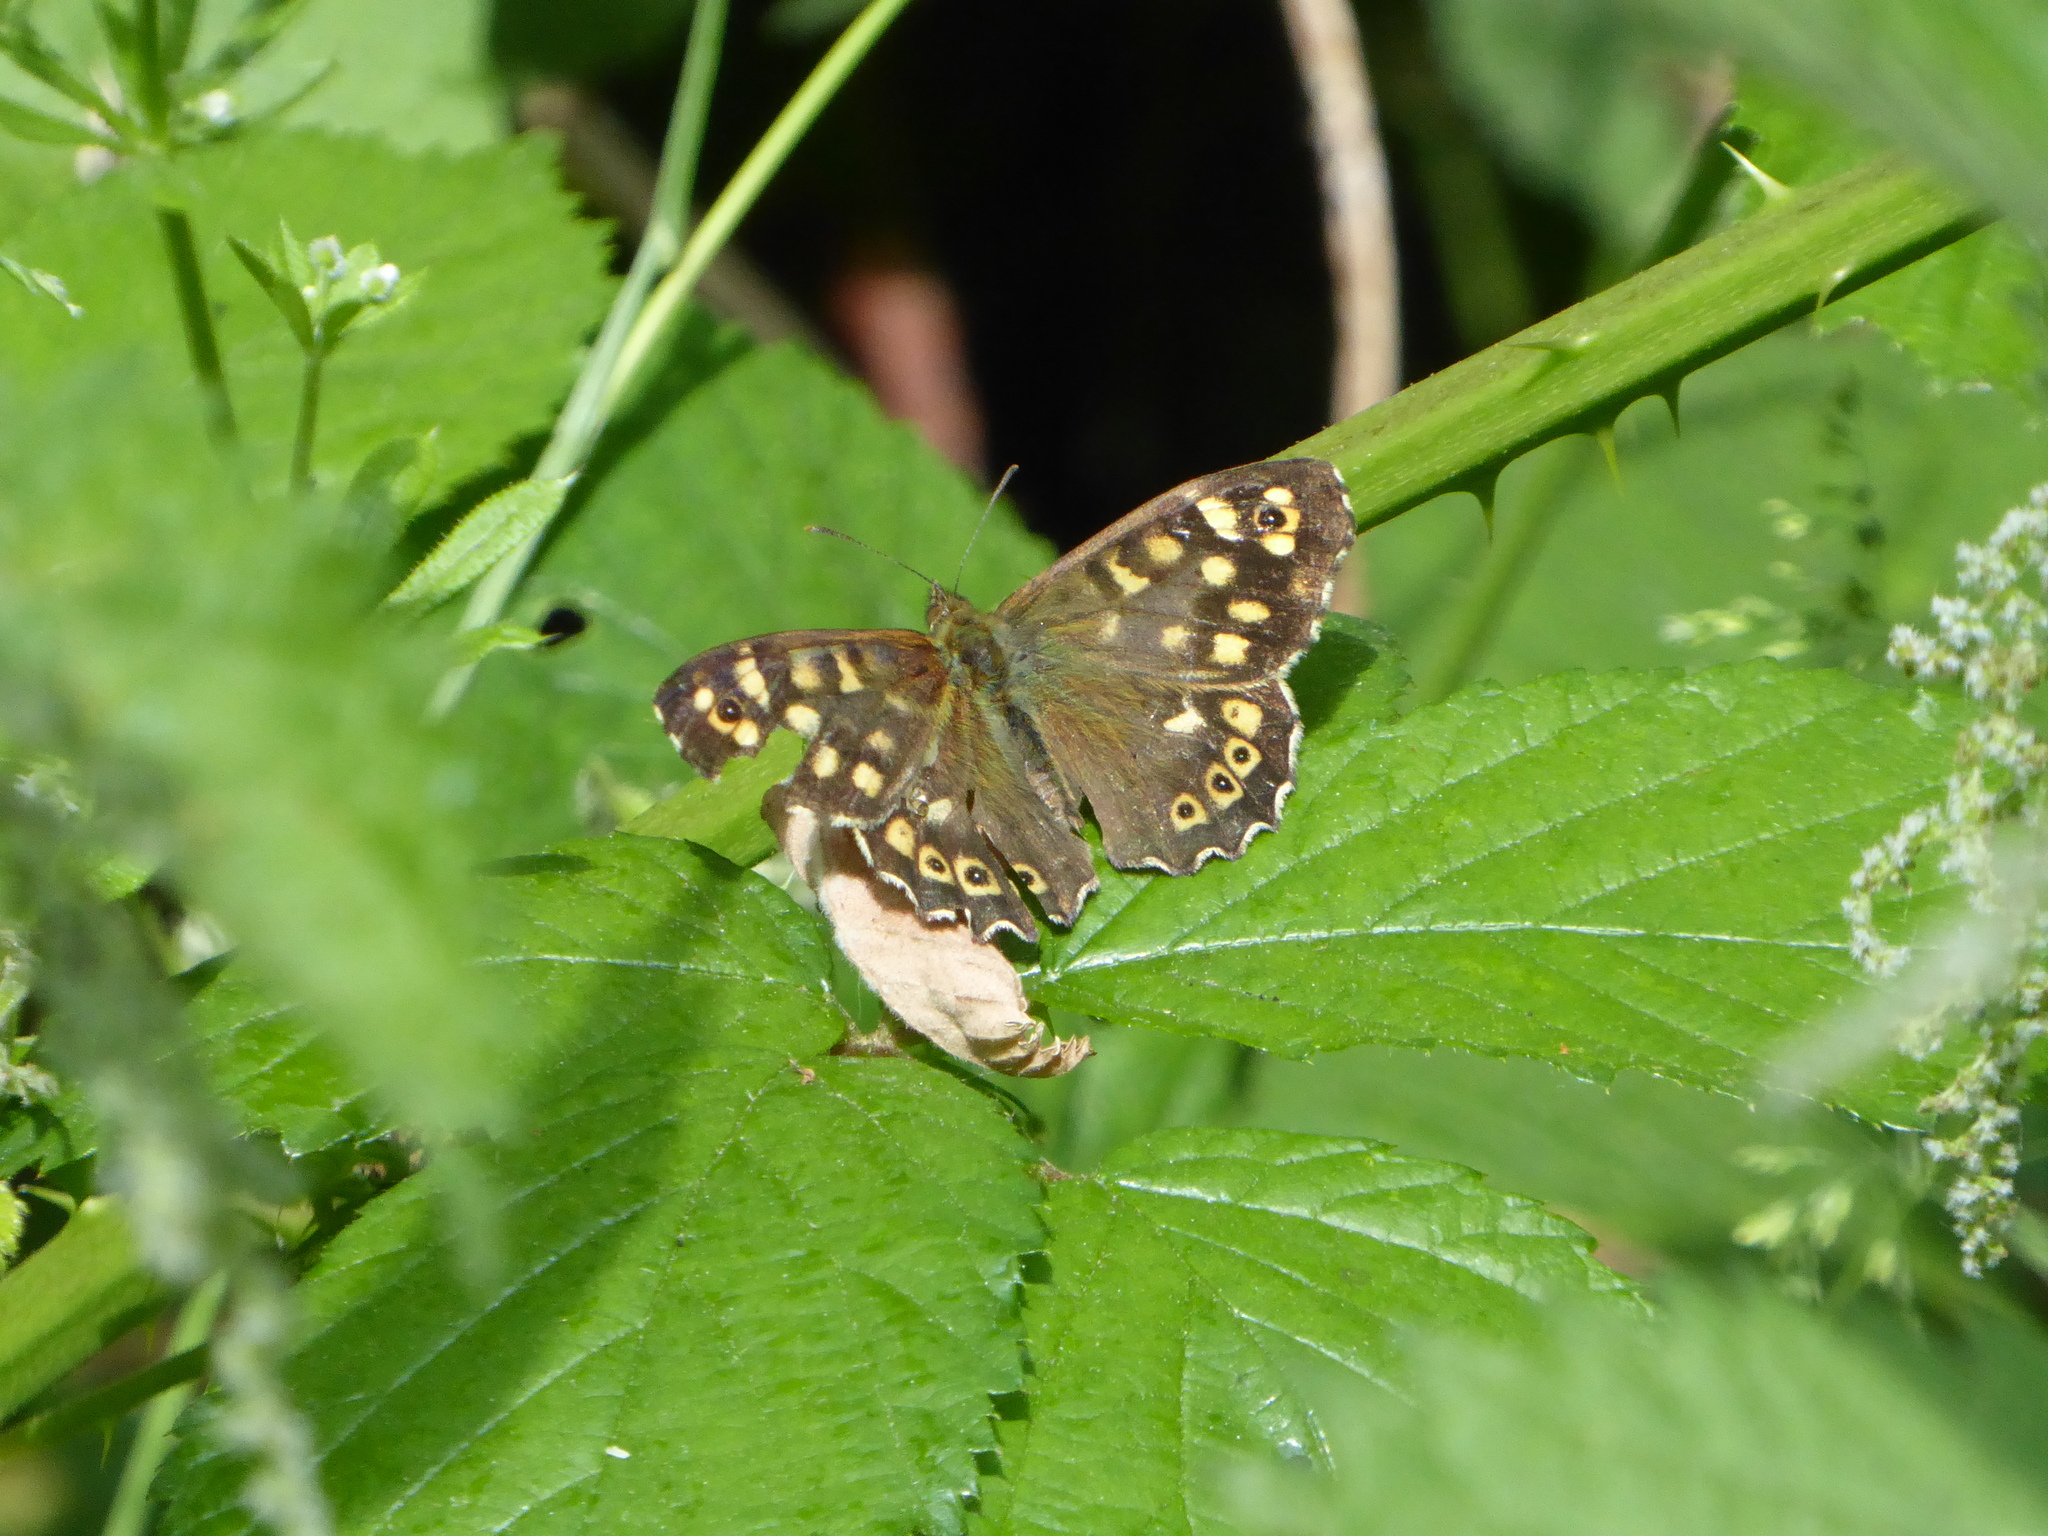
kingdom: Animalia
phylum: Arthropoda
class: Insecta
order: Lepidoptera
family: Nymphalidae
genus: Pararge
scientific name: Pararge aegeria
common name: Speckled wood
